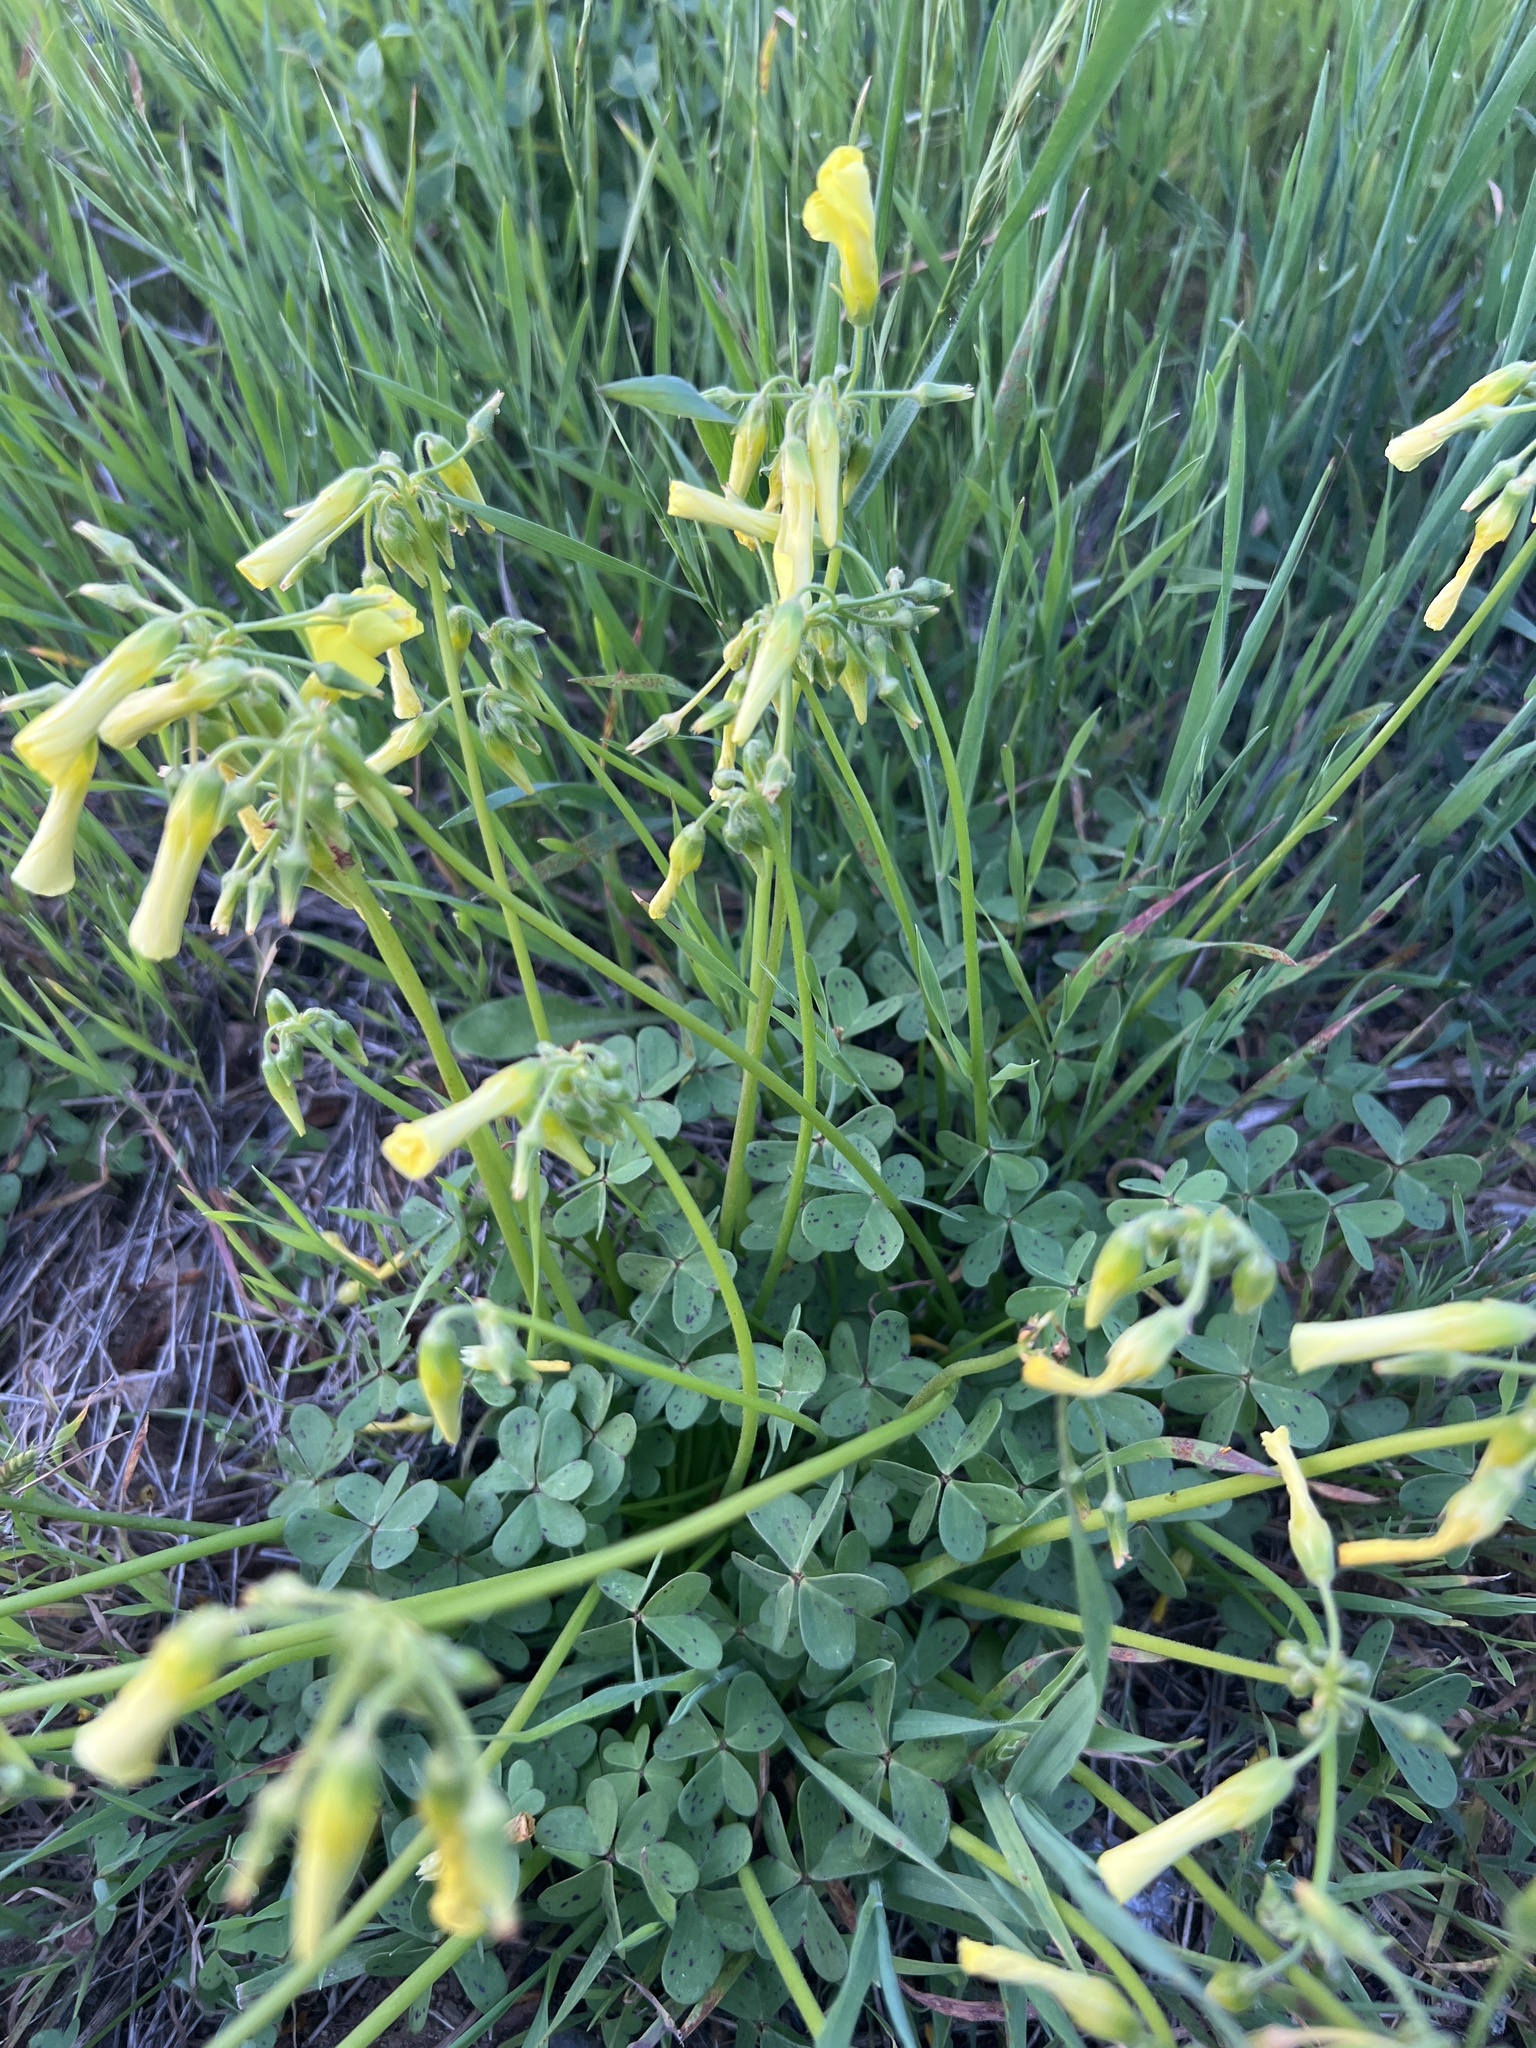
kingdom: Plantae
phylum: Tracheophyta
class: Magnoliopsida
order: Oxalidales
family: Oxalidaceae
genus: Oxalis
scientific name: Oxalis pes-caprae
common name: Bermuda-buttercup
